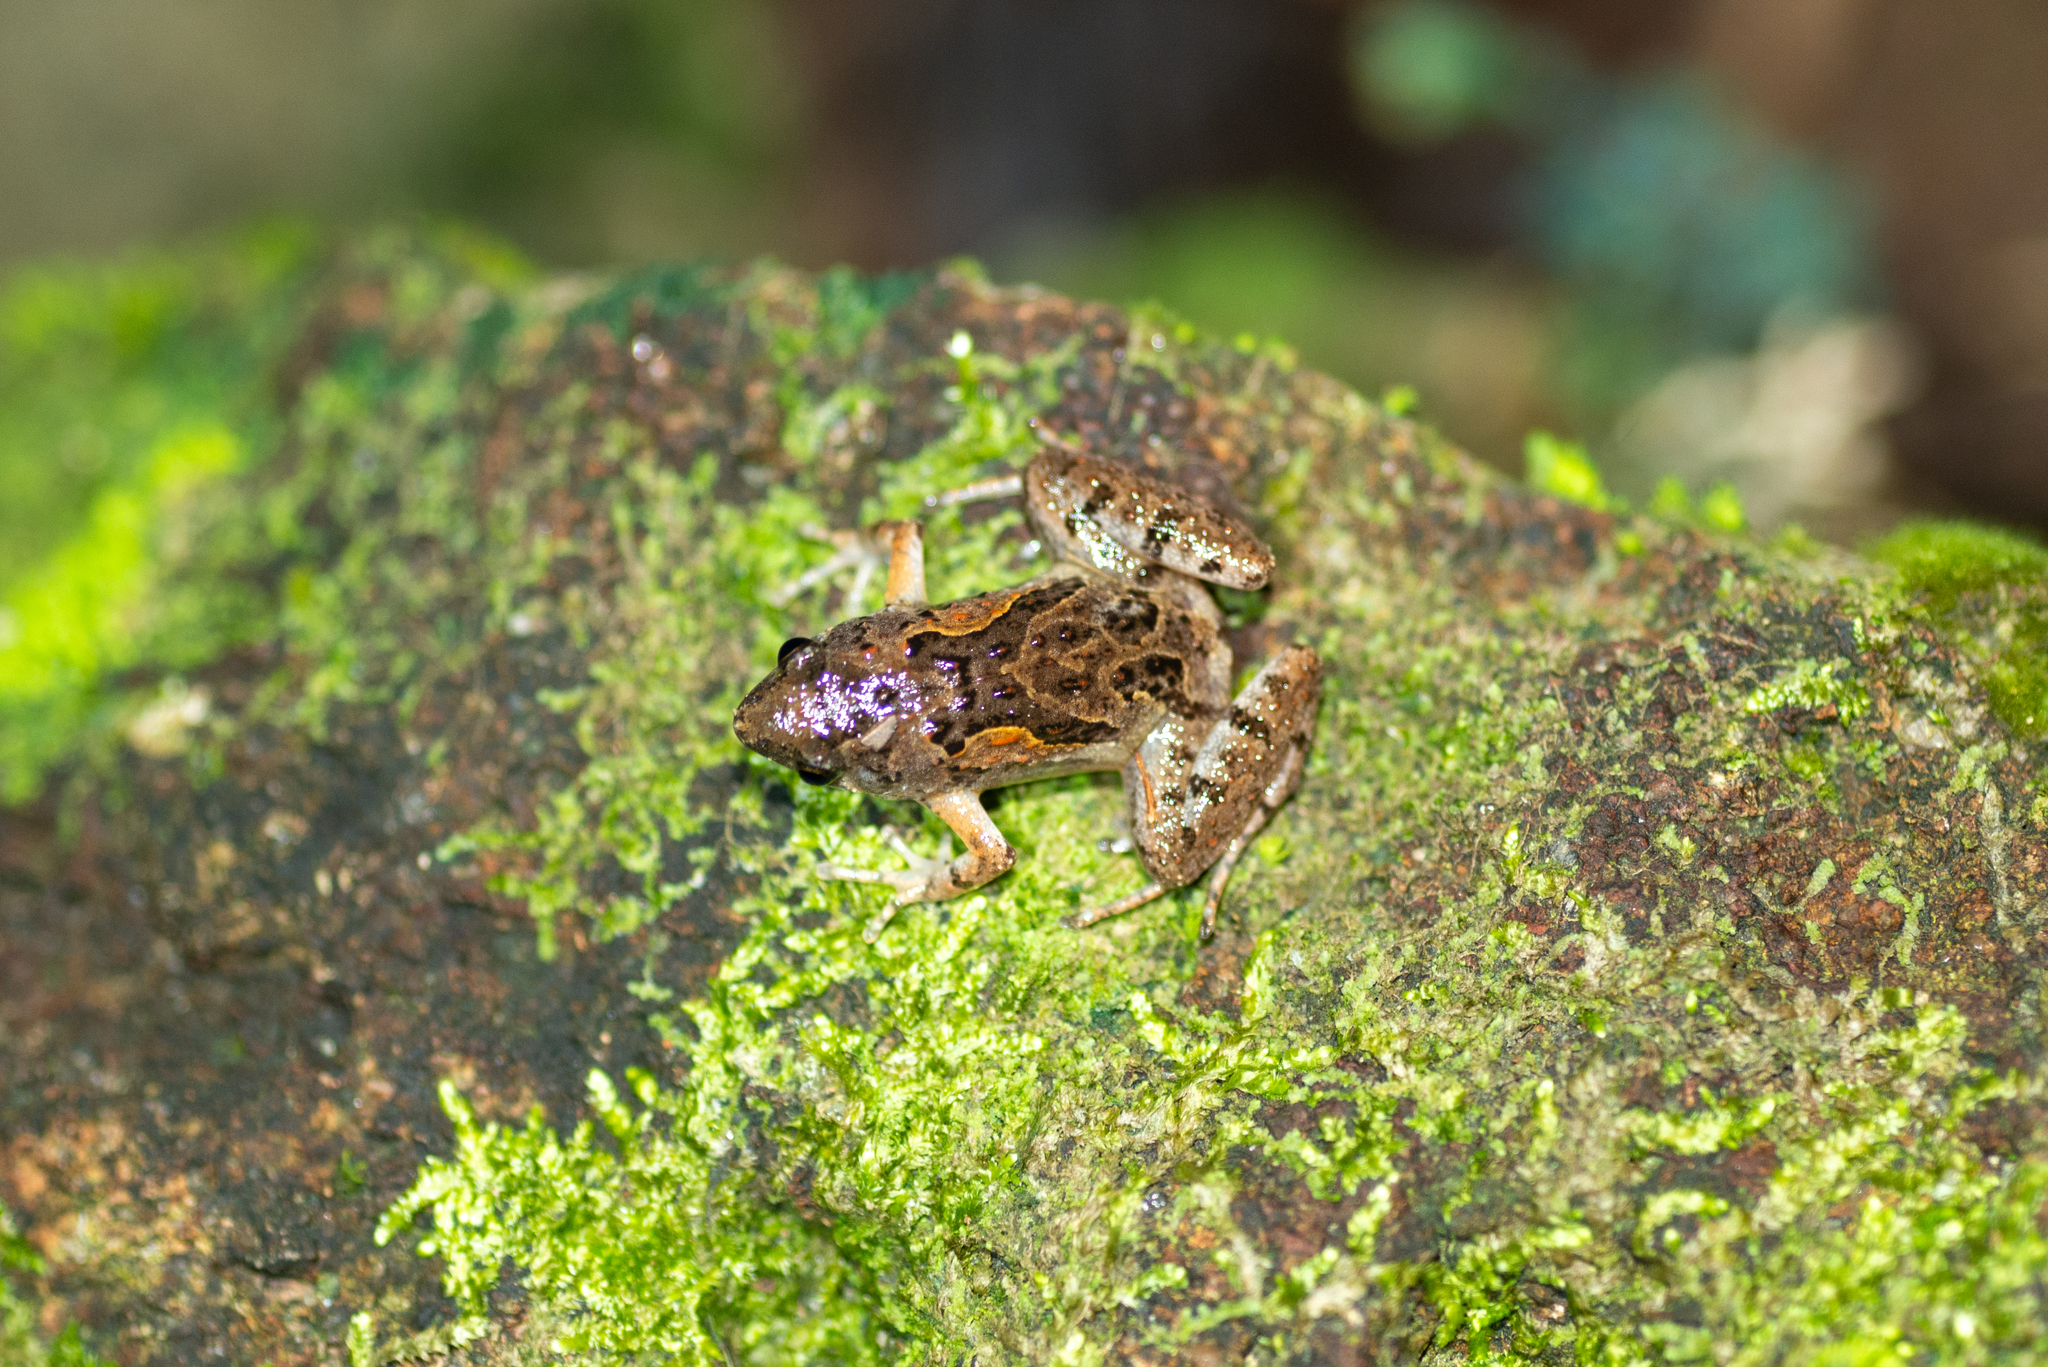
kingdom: Animalia
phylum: Chordata
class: Amphibia
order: Anura
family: Microhylidae
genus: Microhyla
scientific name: Microhyla butleri
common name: Butler’s rice frog,painted chorus frog,tubercled pygmy frog
